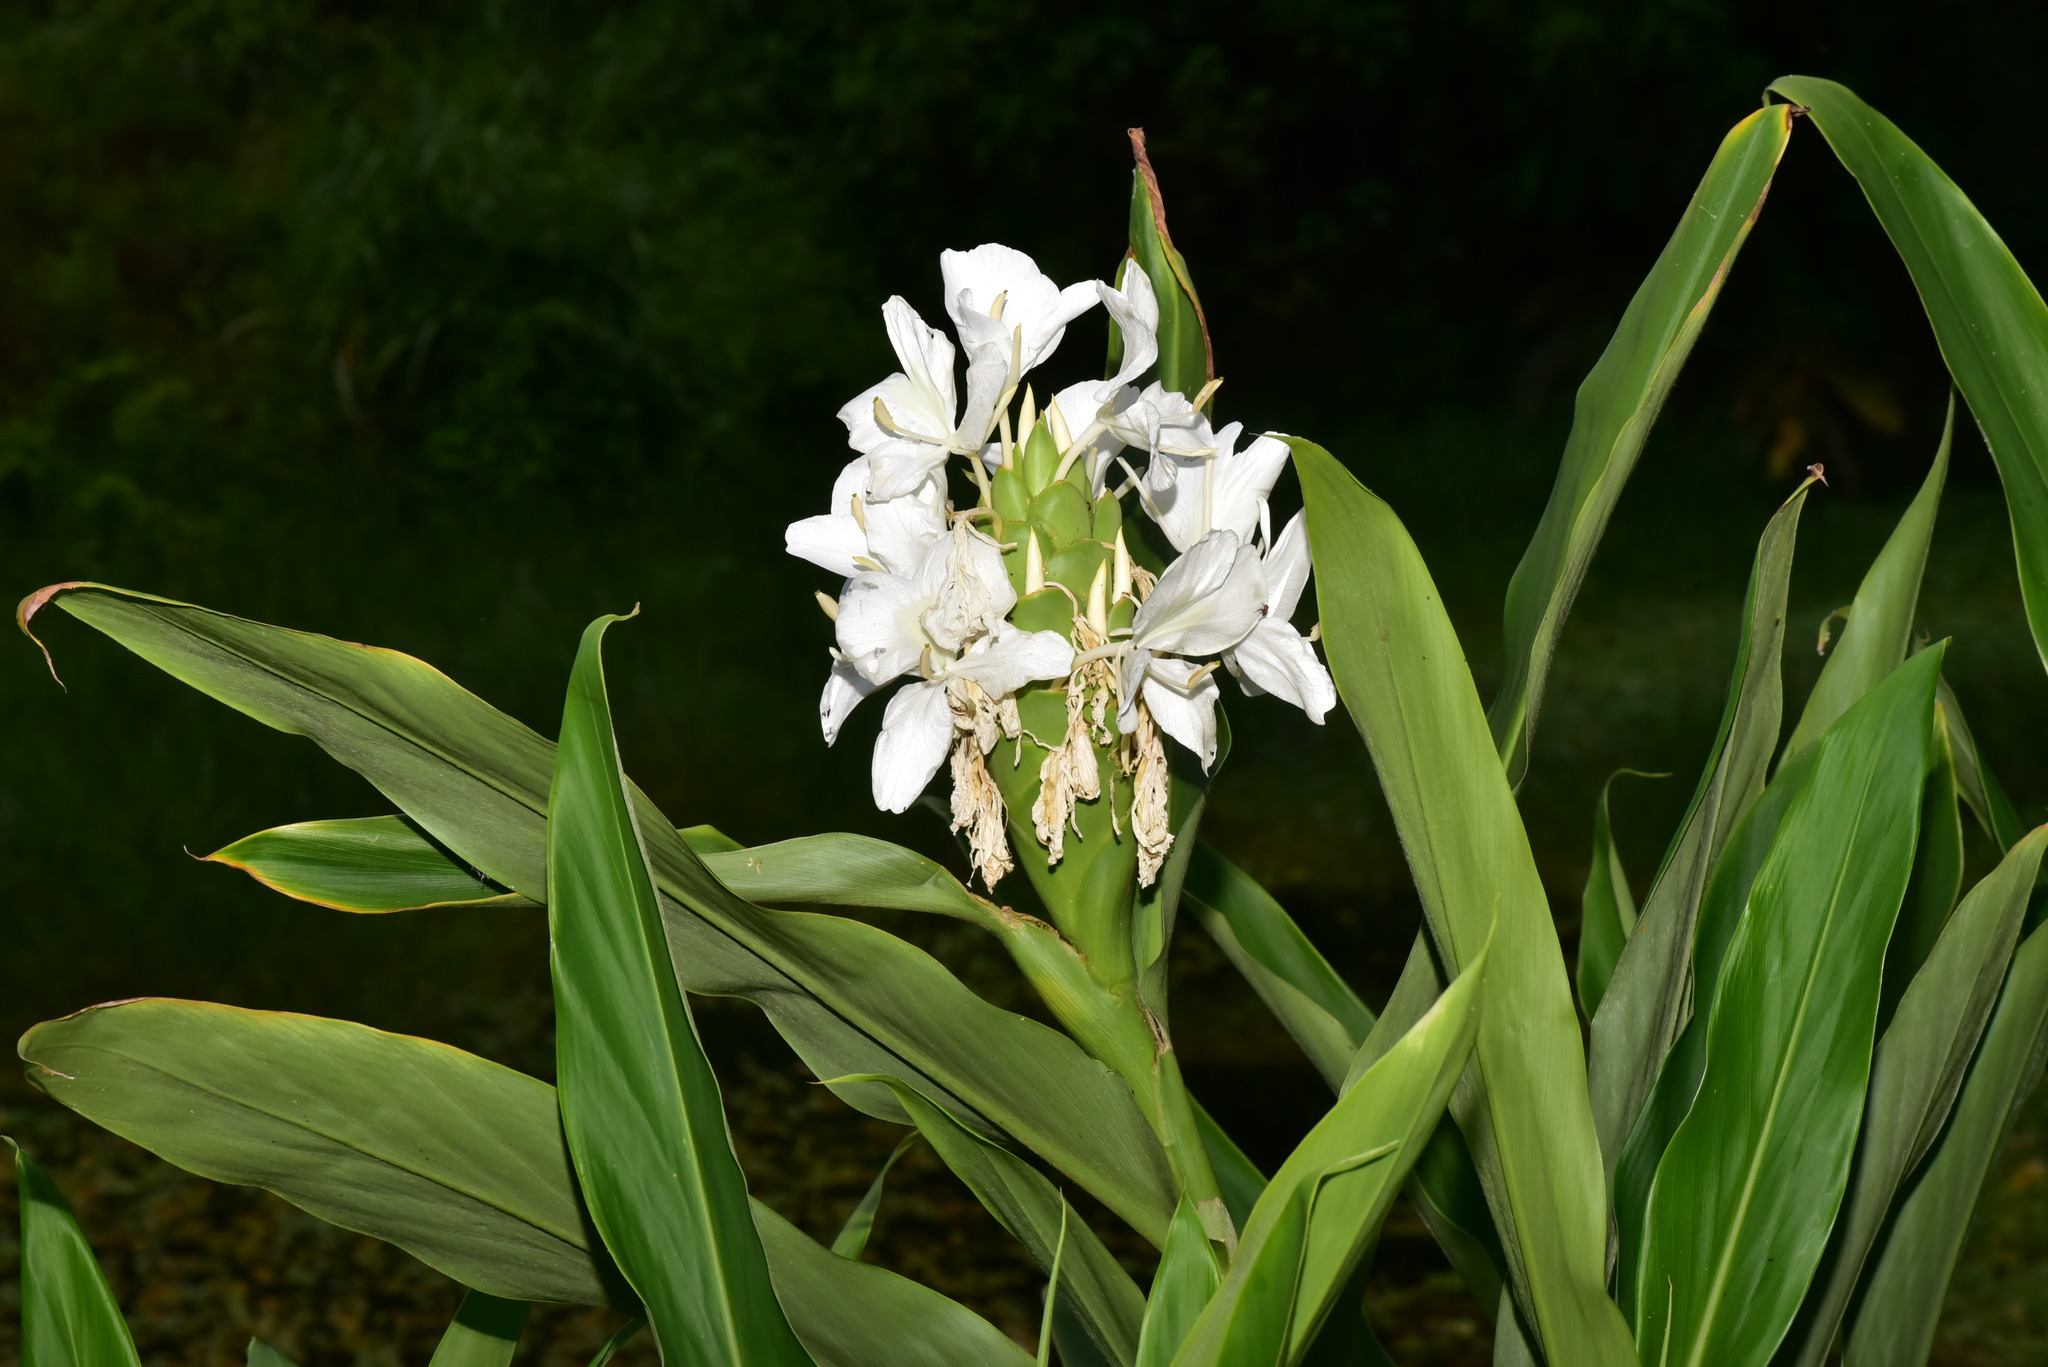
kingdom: Plantae
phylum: Tracheophyta
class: Liliopsida
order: Zingiberales
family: Zingiberaceae
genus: Hedychium
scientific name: Hedychium coronarium
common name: White garland-lily
